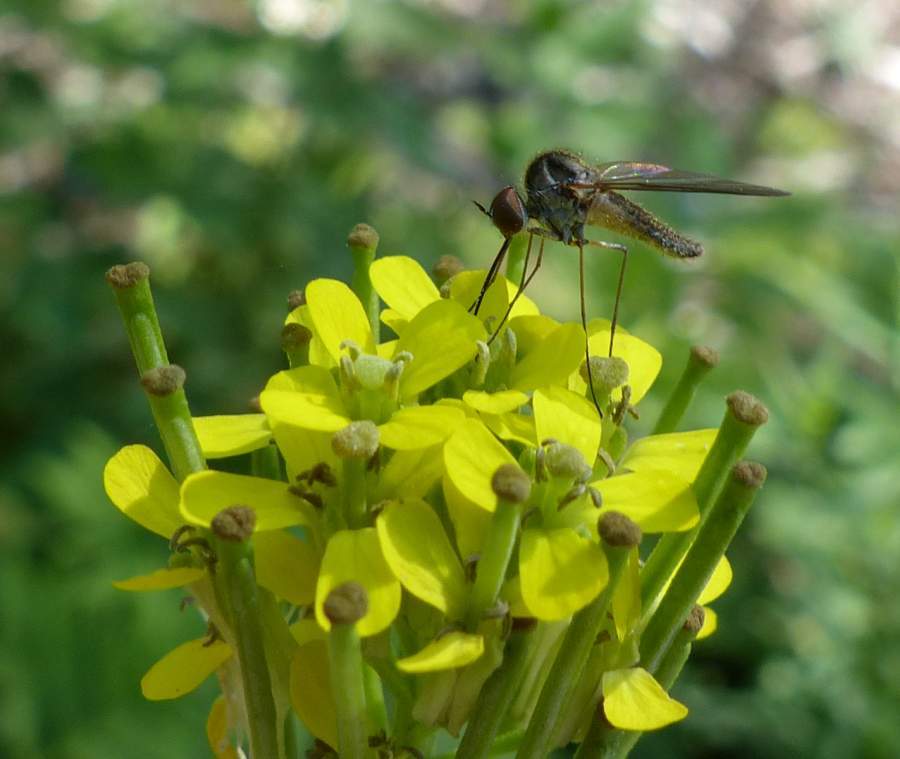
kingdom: Animalia
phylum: Arthropoda
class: Insecta
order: Diptera
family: Bombyliidae
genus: Geron
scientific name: Geron calvus
